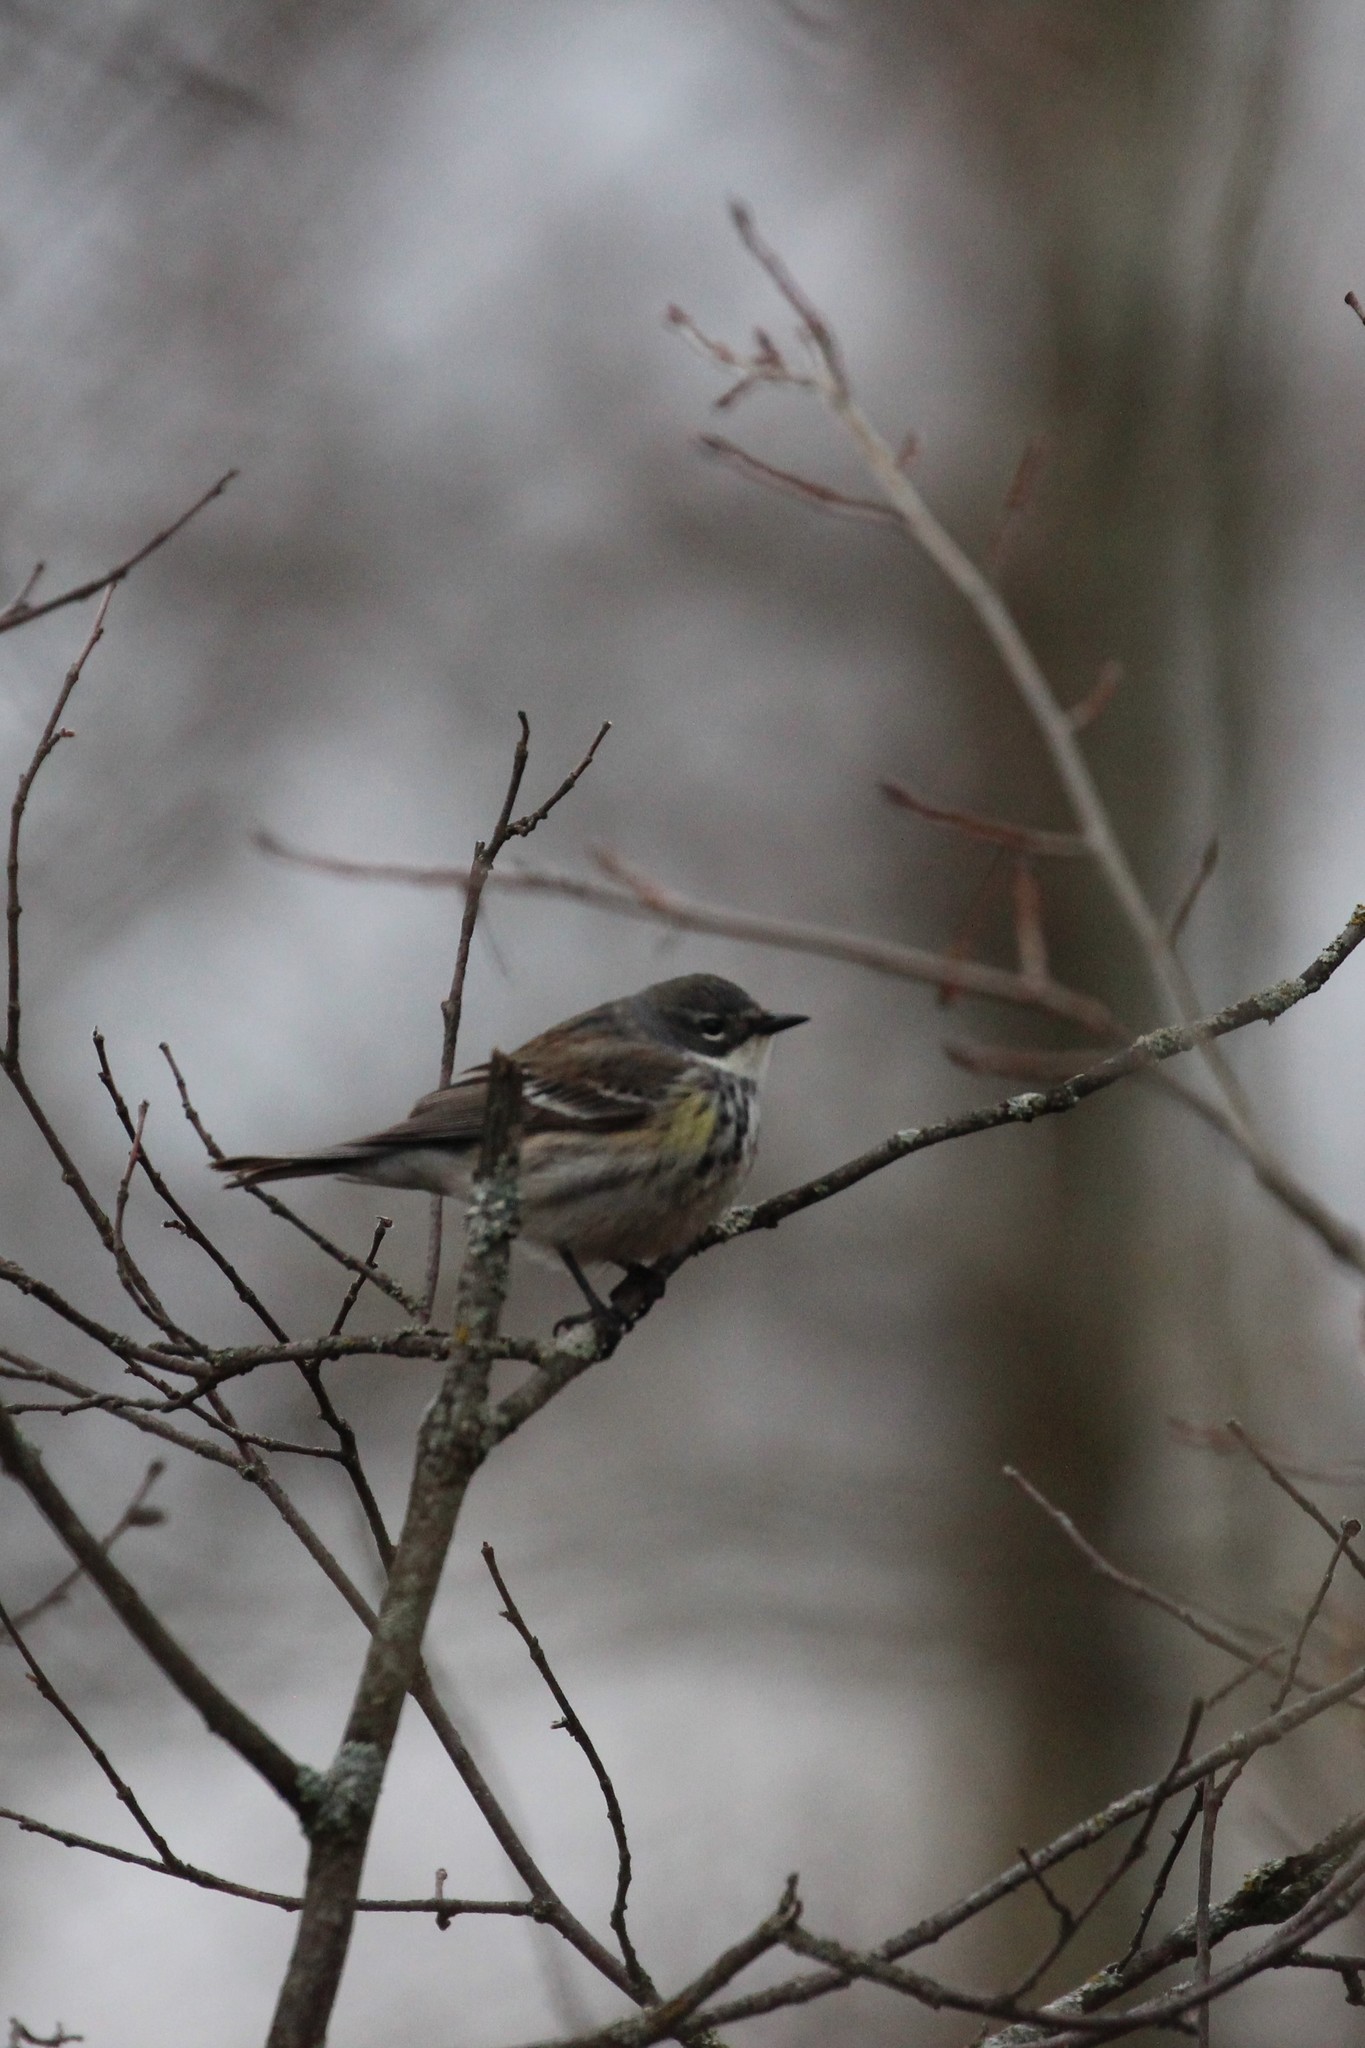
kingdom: Animalia
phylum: Chordata
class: Aves
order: Passeriformes
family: Parulidae
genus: Setophaga
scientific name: Setophaga coronata
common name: Myrtle warbler
